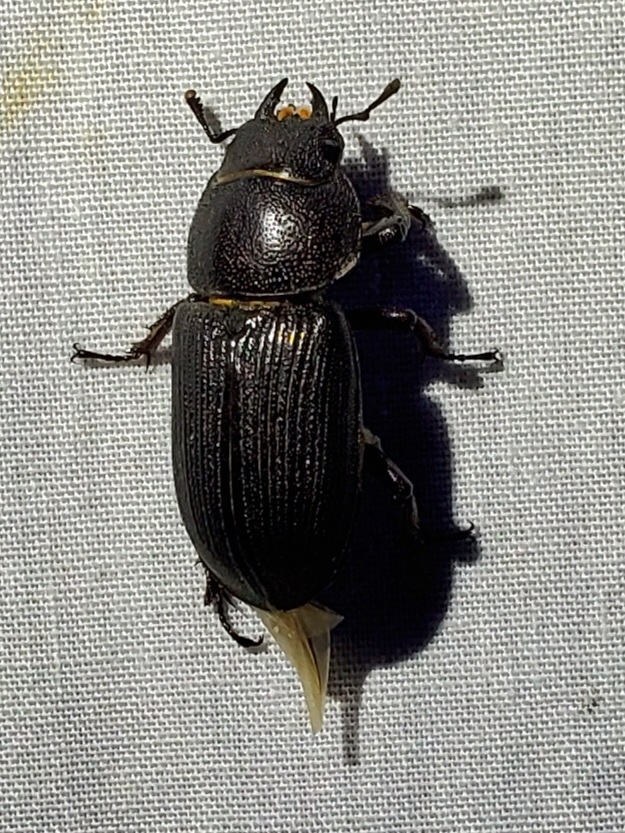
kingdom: Animalia
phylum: Arthropoda
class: Insecta
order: Coleoptera
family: Lucanidae
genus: Dorcus
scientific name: Dorcus parallelus
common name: Antelope beetle
